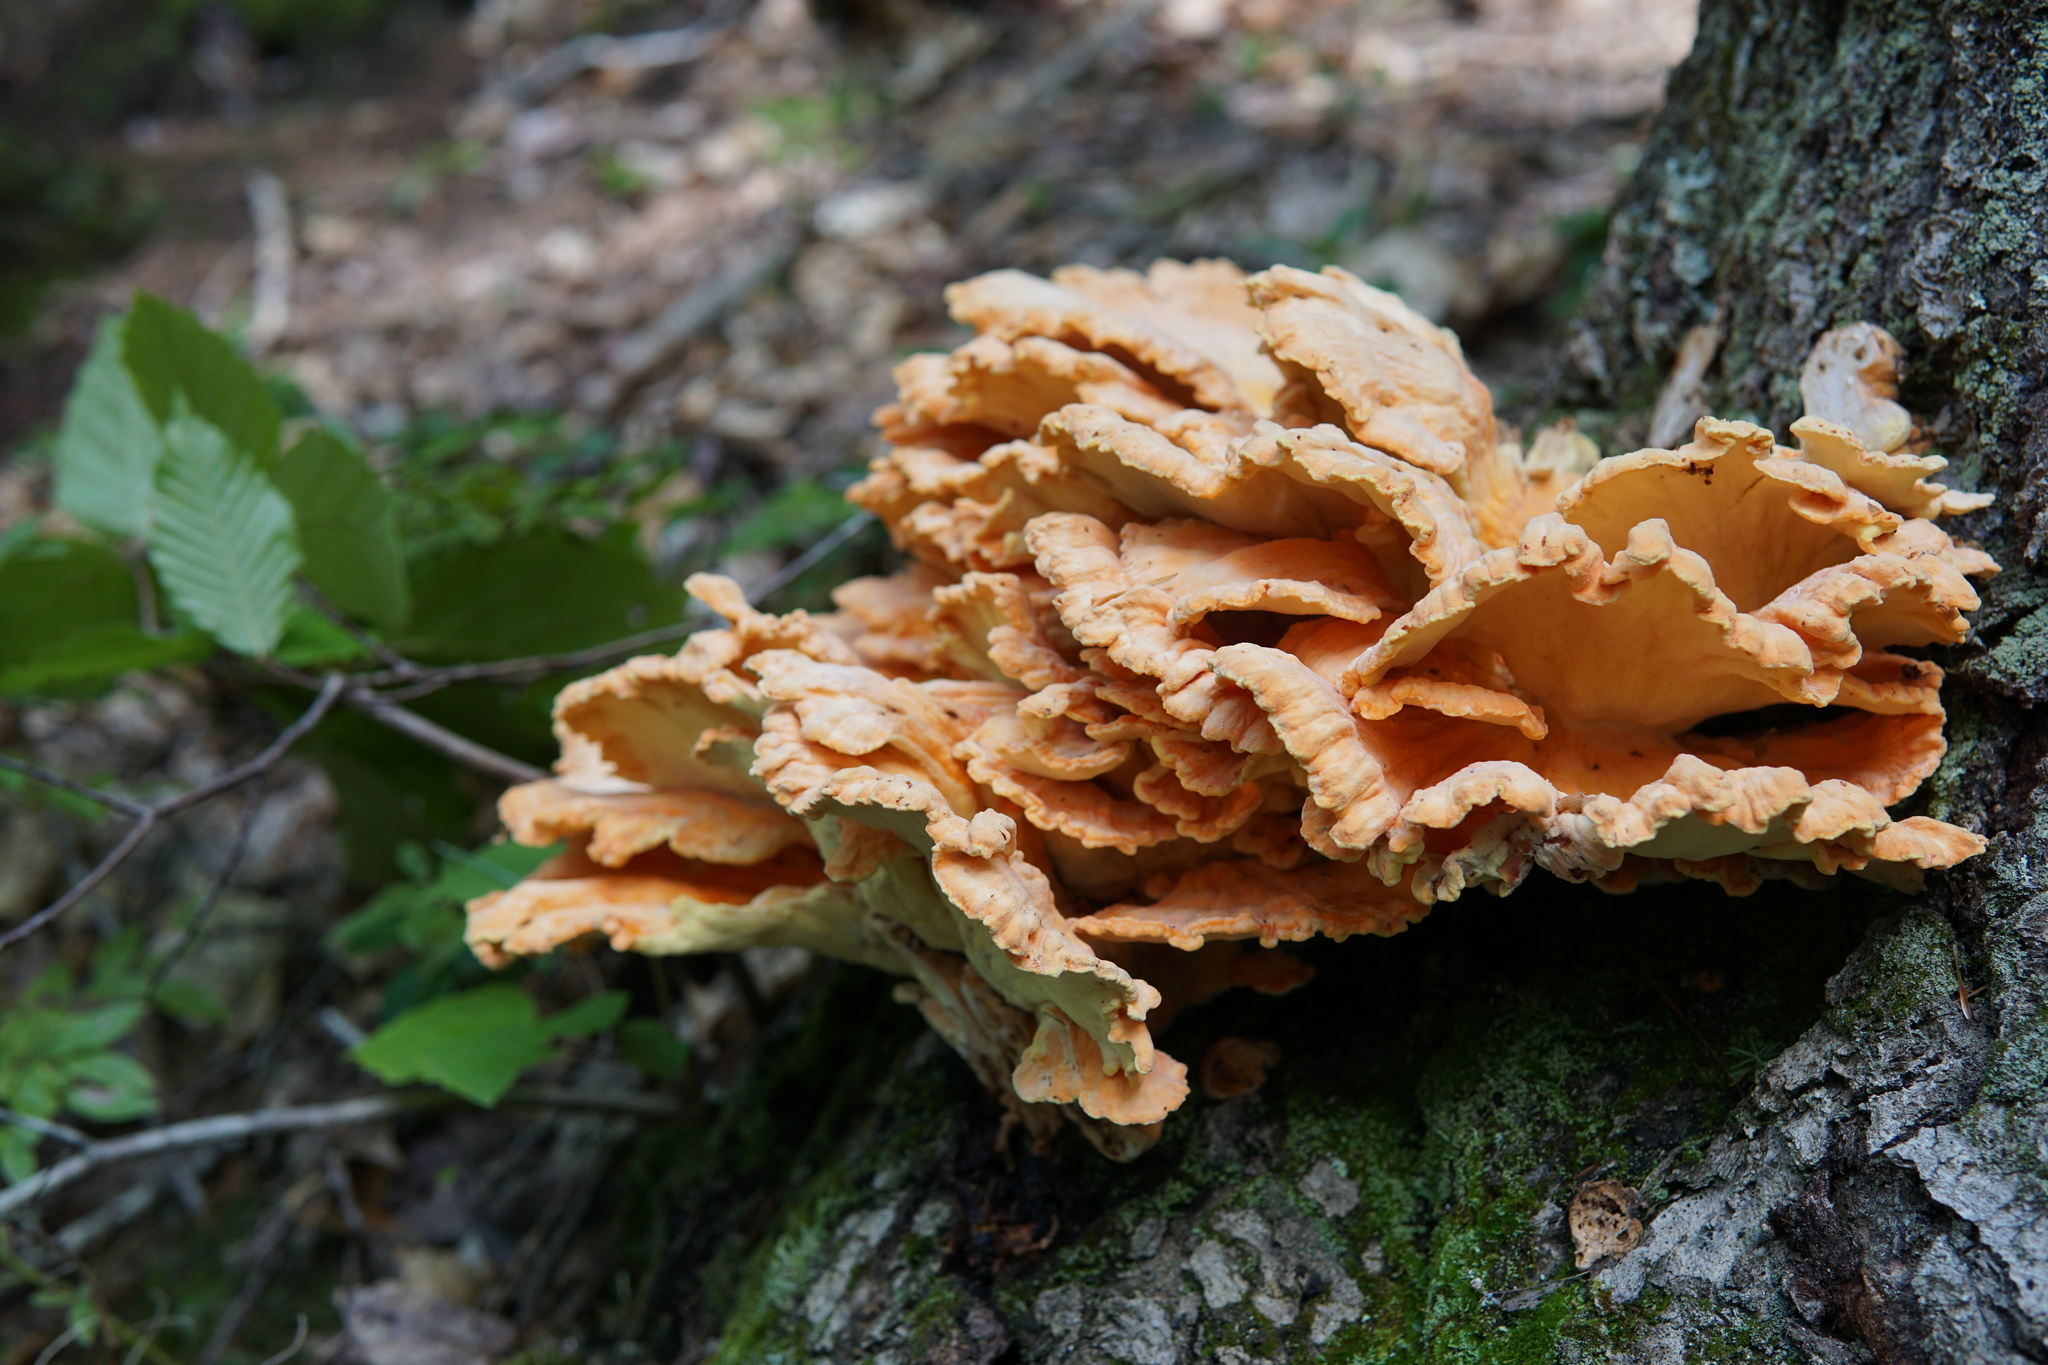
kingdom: Fungi
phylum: Basidiomycota
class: Agaricomycetes
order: Polyporales
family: Laetiporaceae
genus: Laetiporus
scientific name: Laetiporus sulphureus
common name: Chicken of the woods
